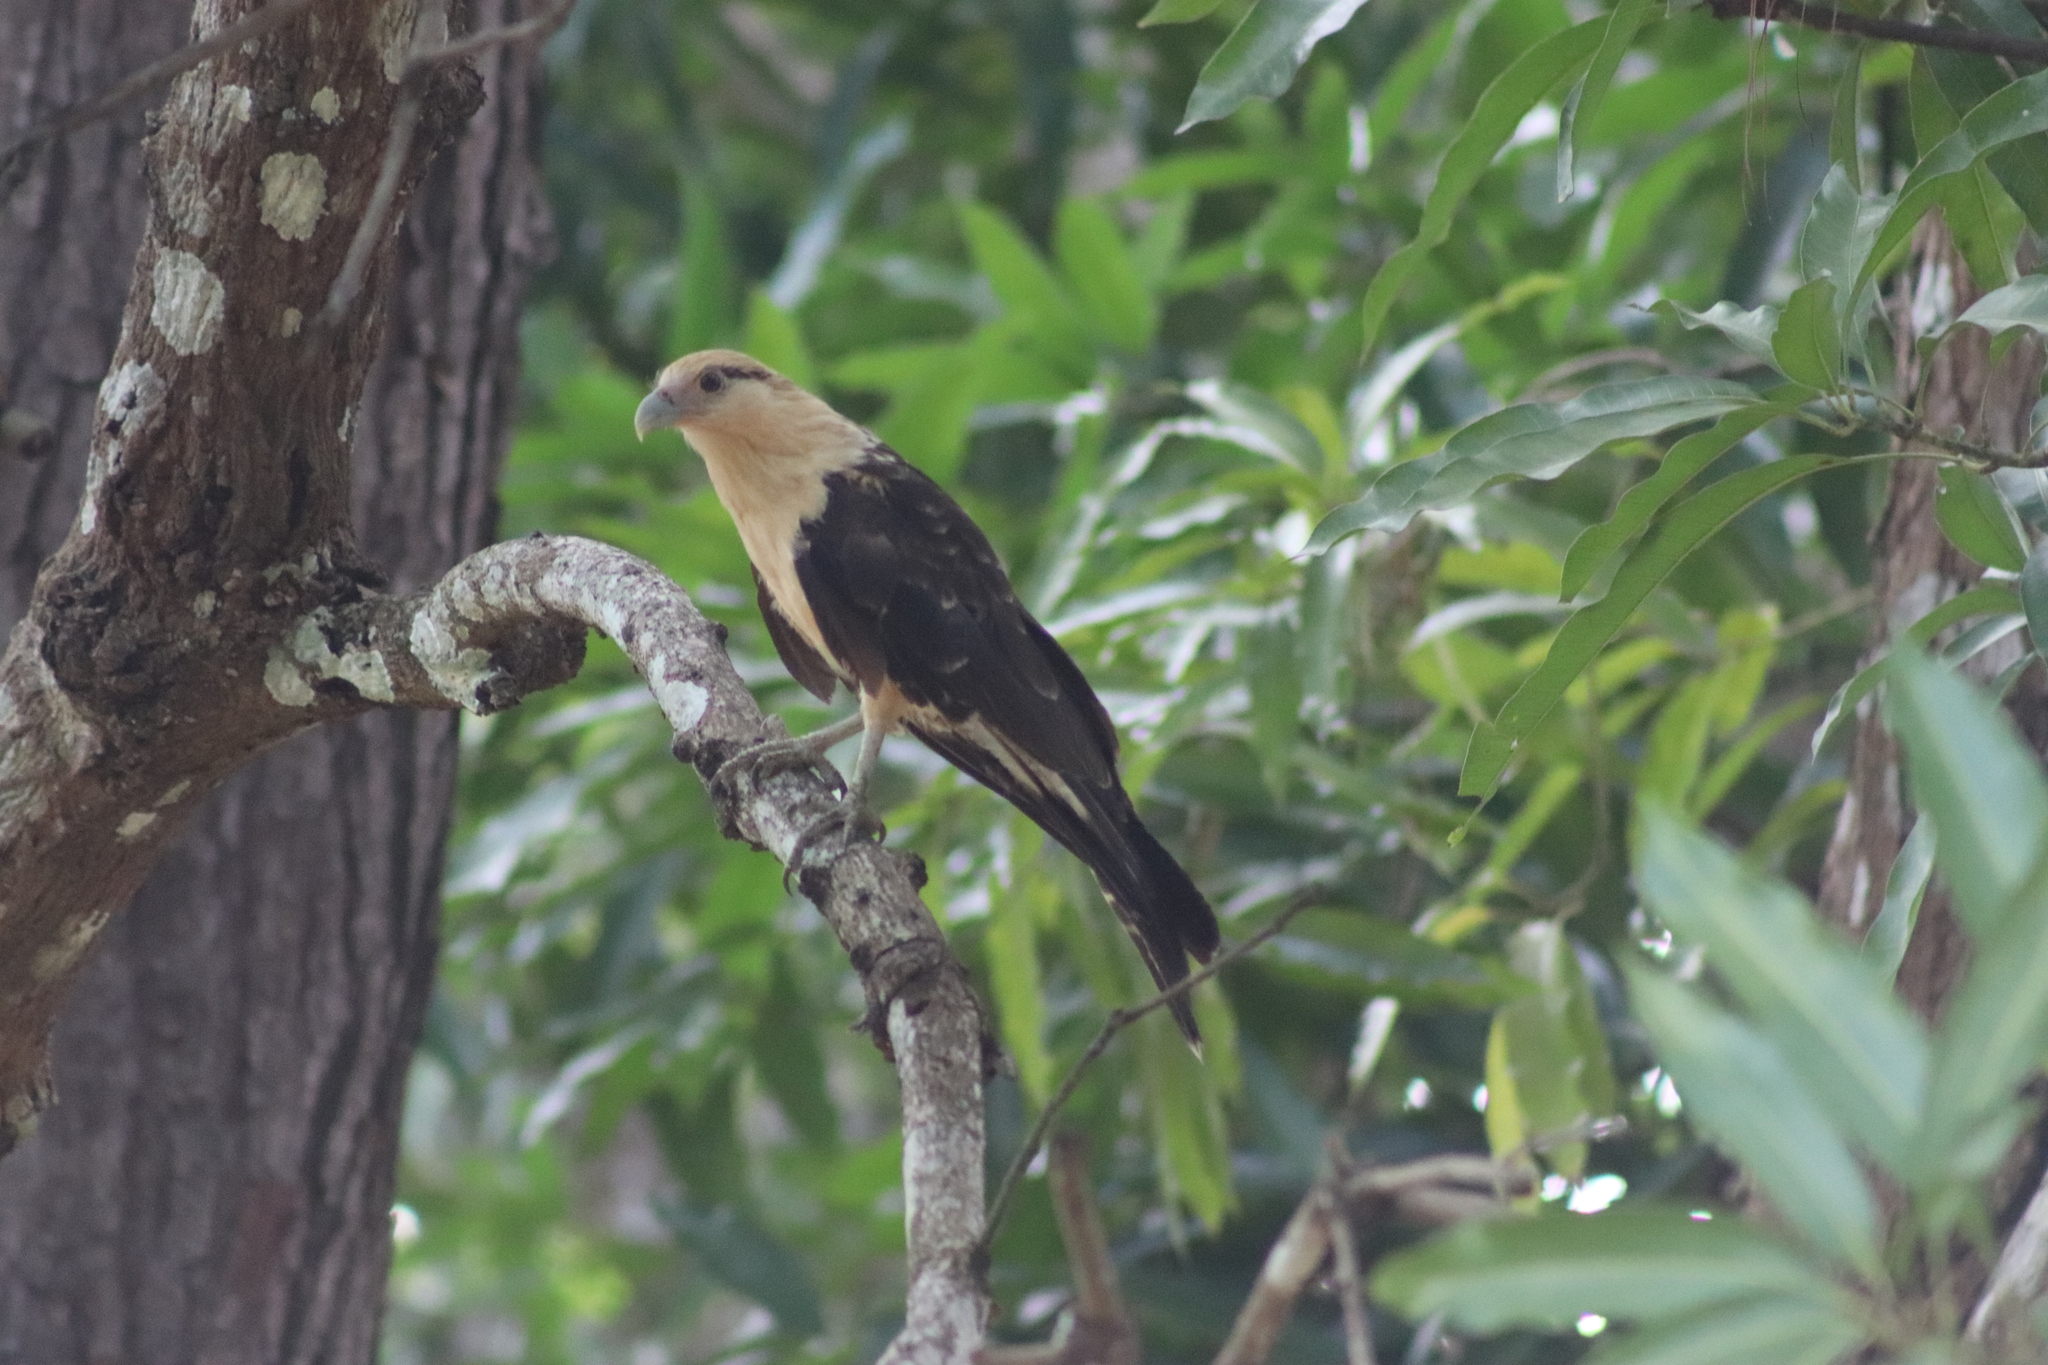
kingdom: Animalia
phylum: Chordata
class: Aves
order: Falconiformes
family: Falconidae
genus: Daptrius
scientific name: Daptrius
